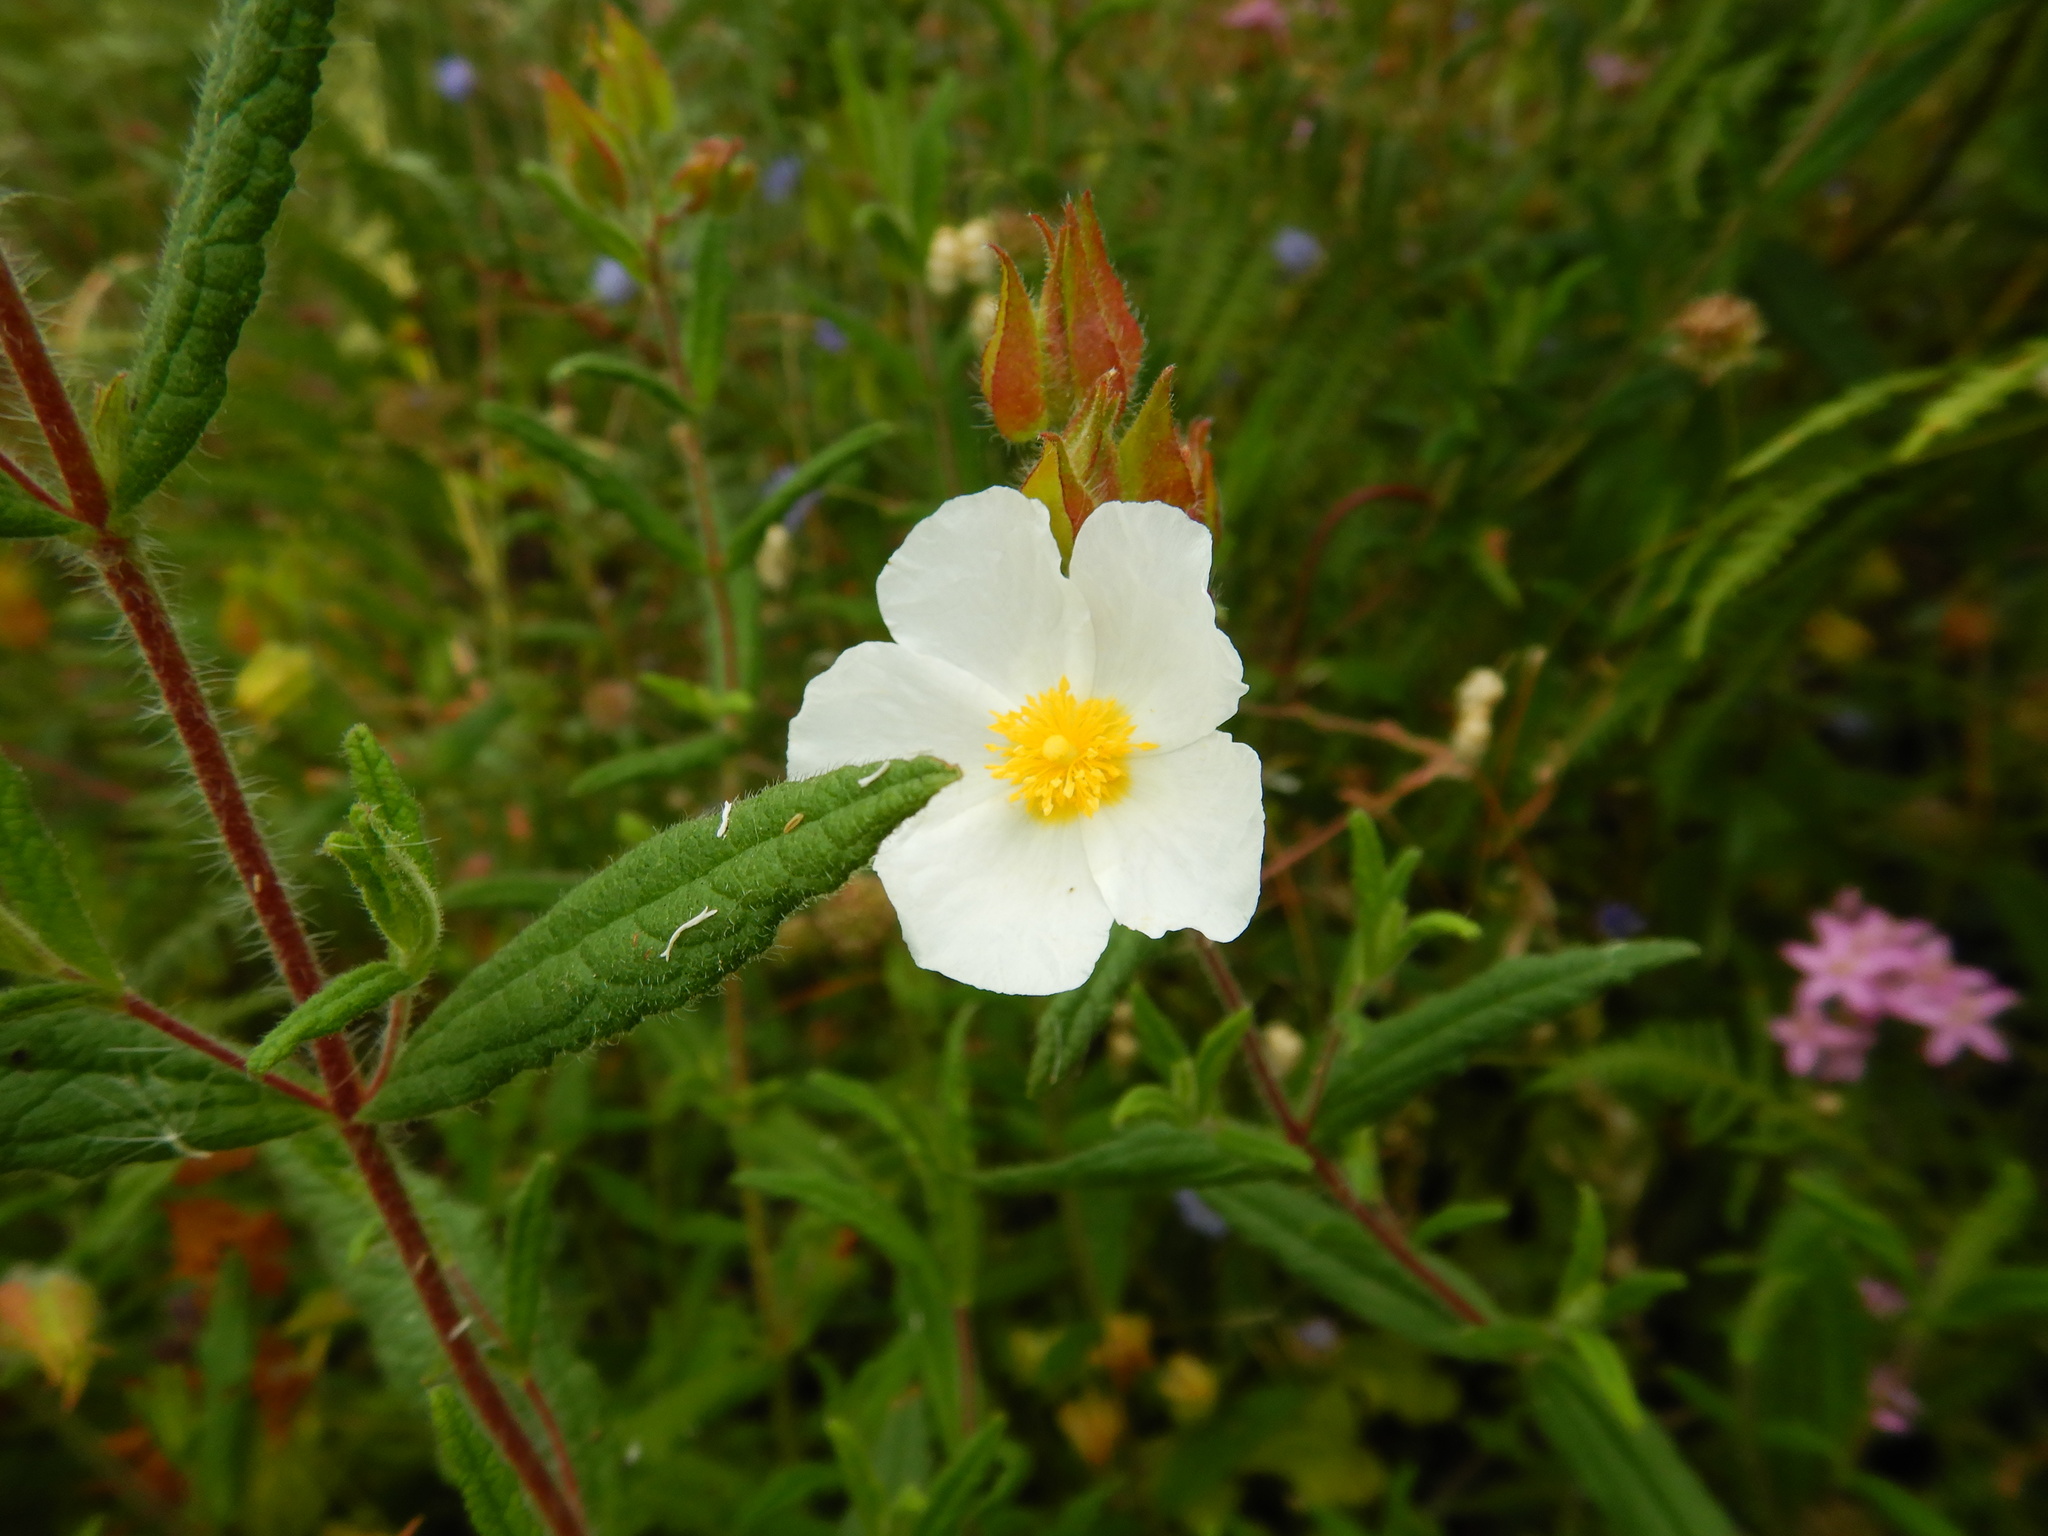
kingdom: Plantae
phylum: Tracheophyta
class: Magnoliopsida
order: Malvales
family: Cistaceae
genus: Cistus
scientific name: Cistus inflatus
